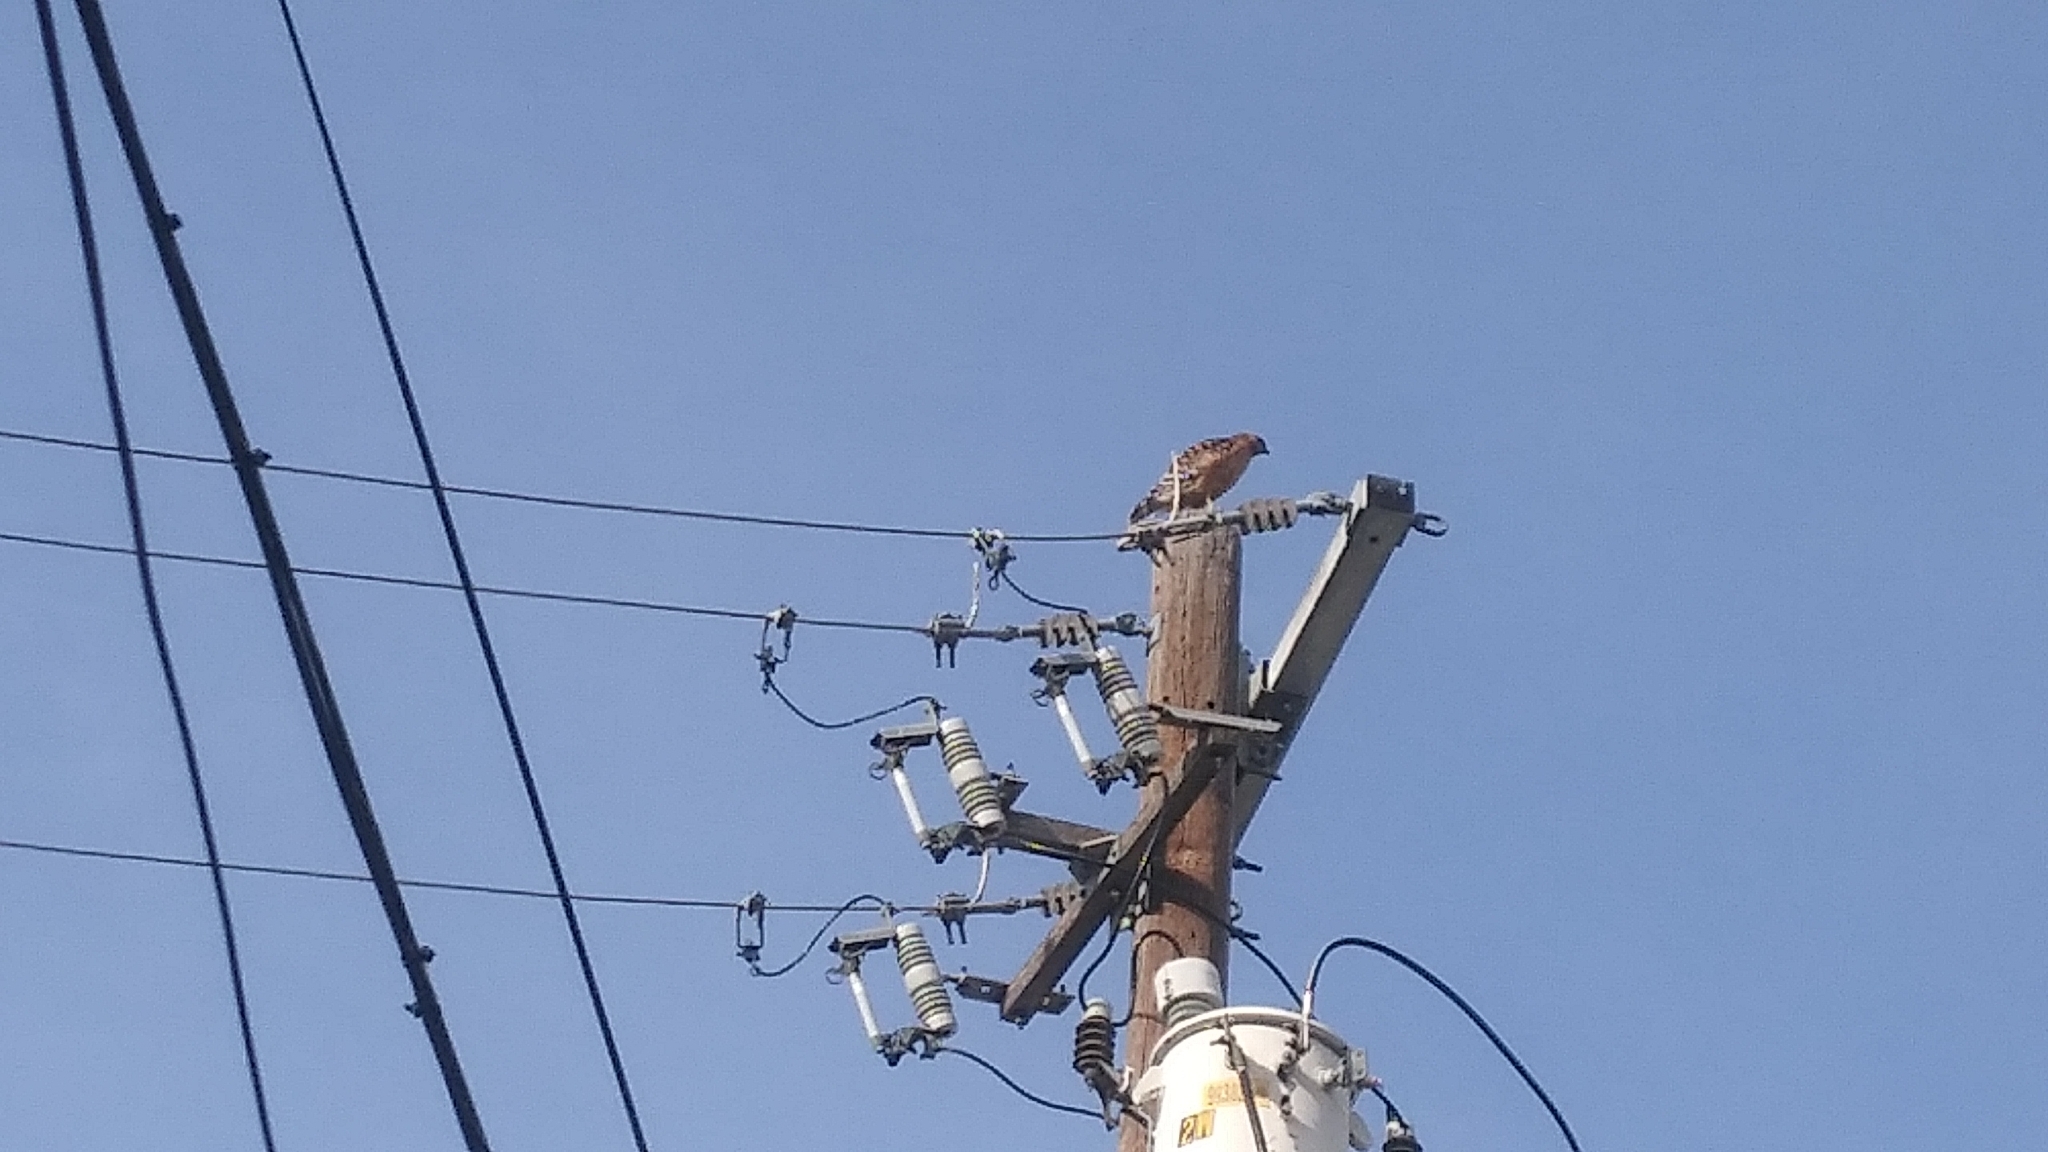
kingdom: Animalia
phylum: Chordata
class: Aves
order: Accipitriformes
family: Accipitridae
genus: Buteo
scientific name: Buteo lineatus
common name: Red-shouldered hawk
